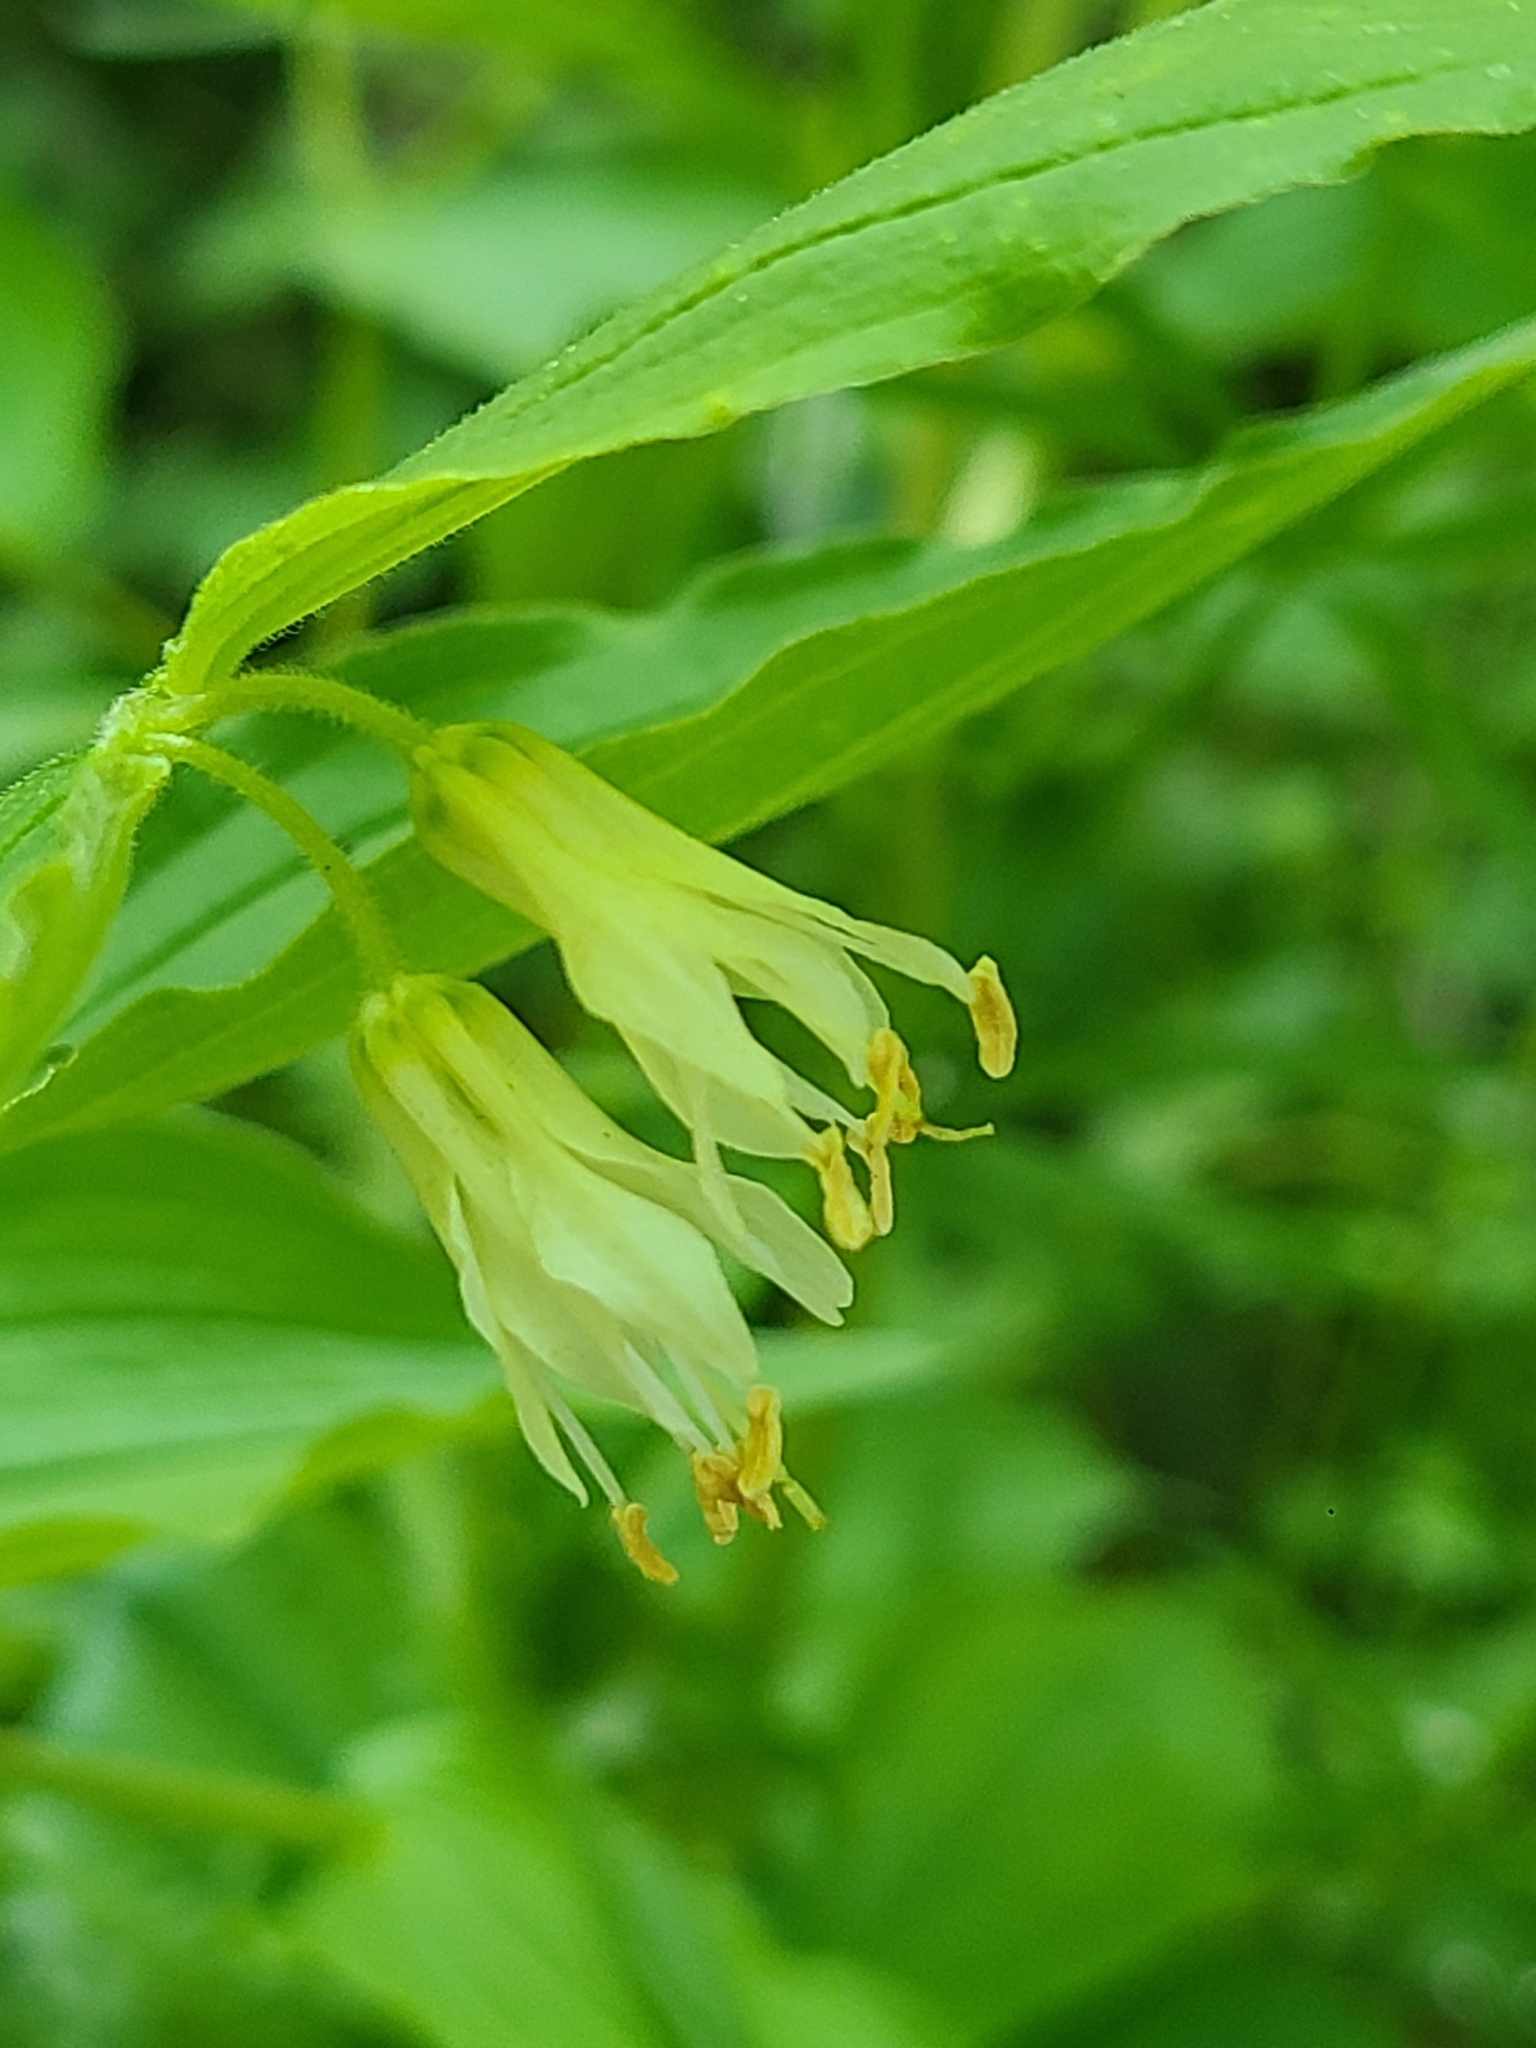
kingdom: Plantae
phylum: Tracheophyta
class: Liliopsida
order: Liliales
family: Liliaceae
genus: Prosartes
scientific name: Prosartes hookeri
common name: Fairy-bells
